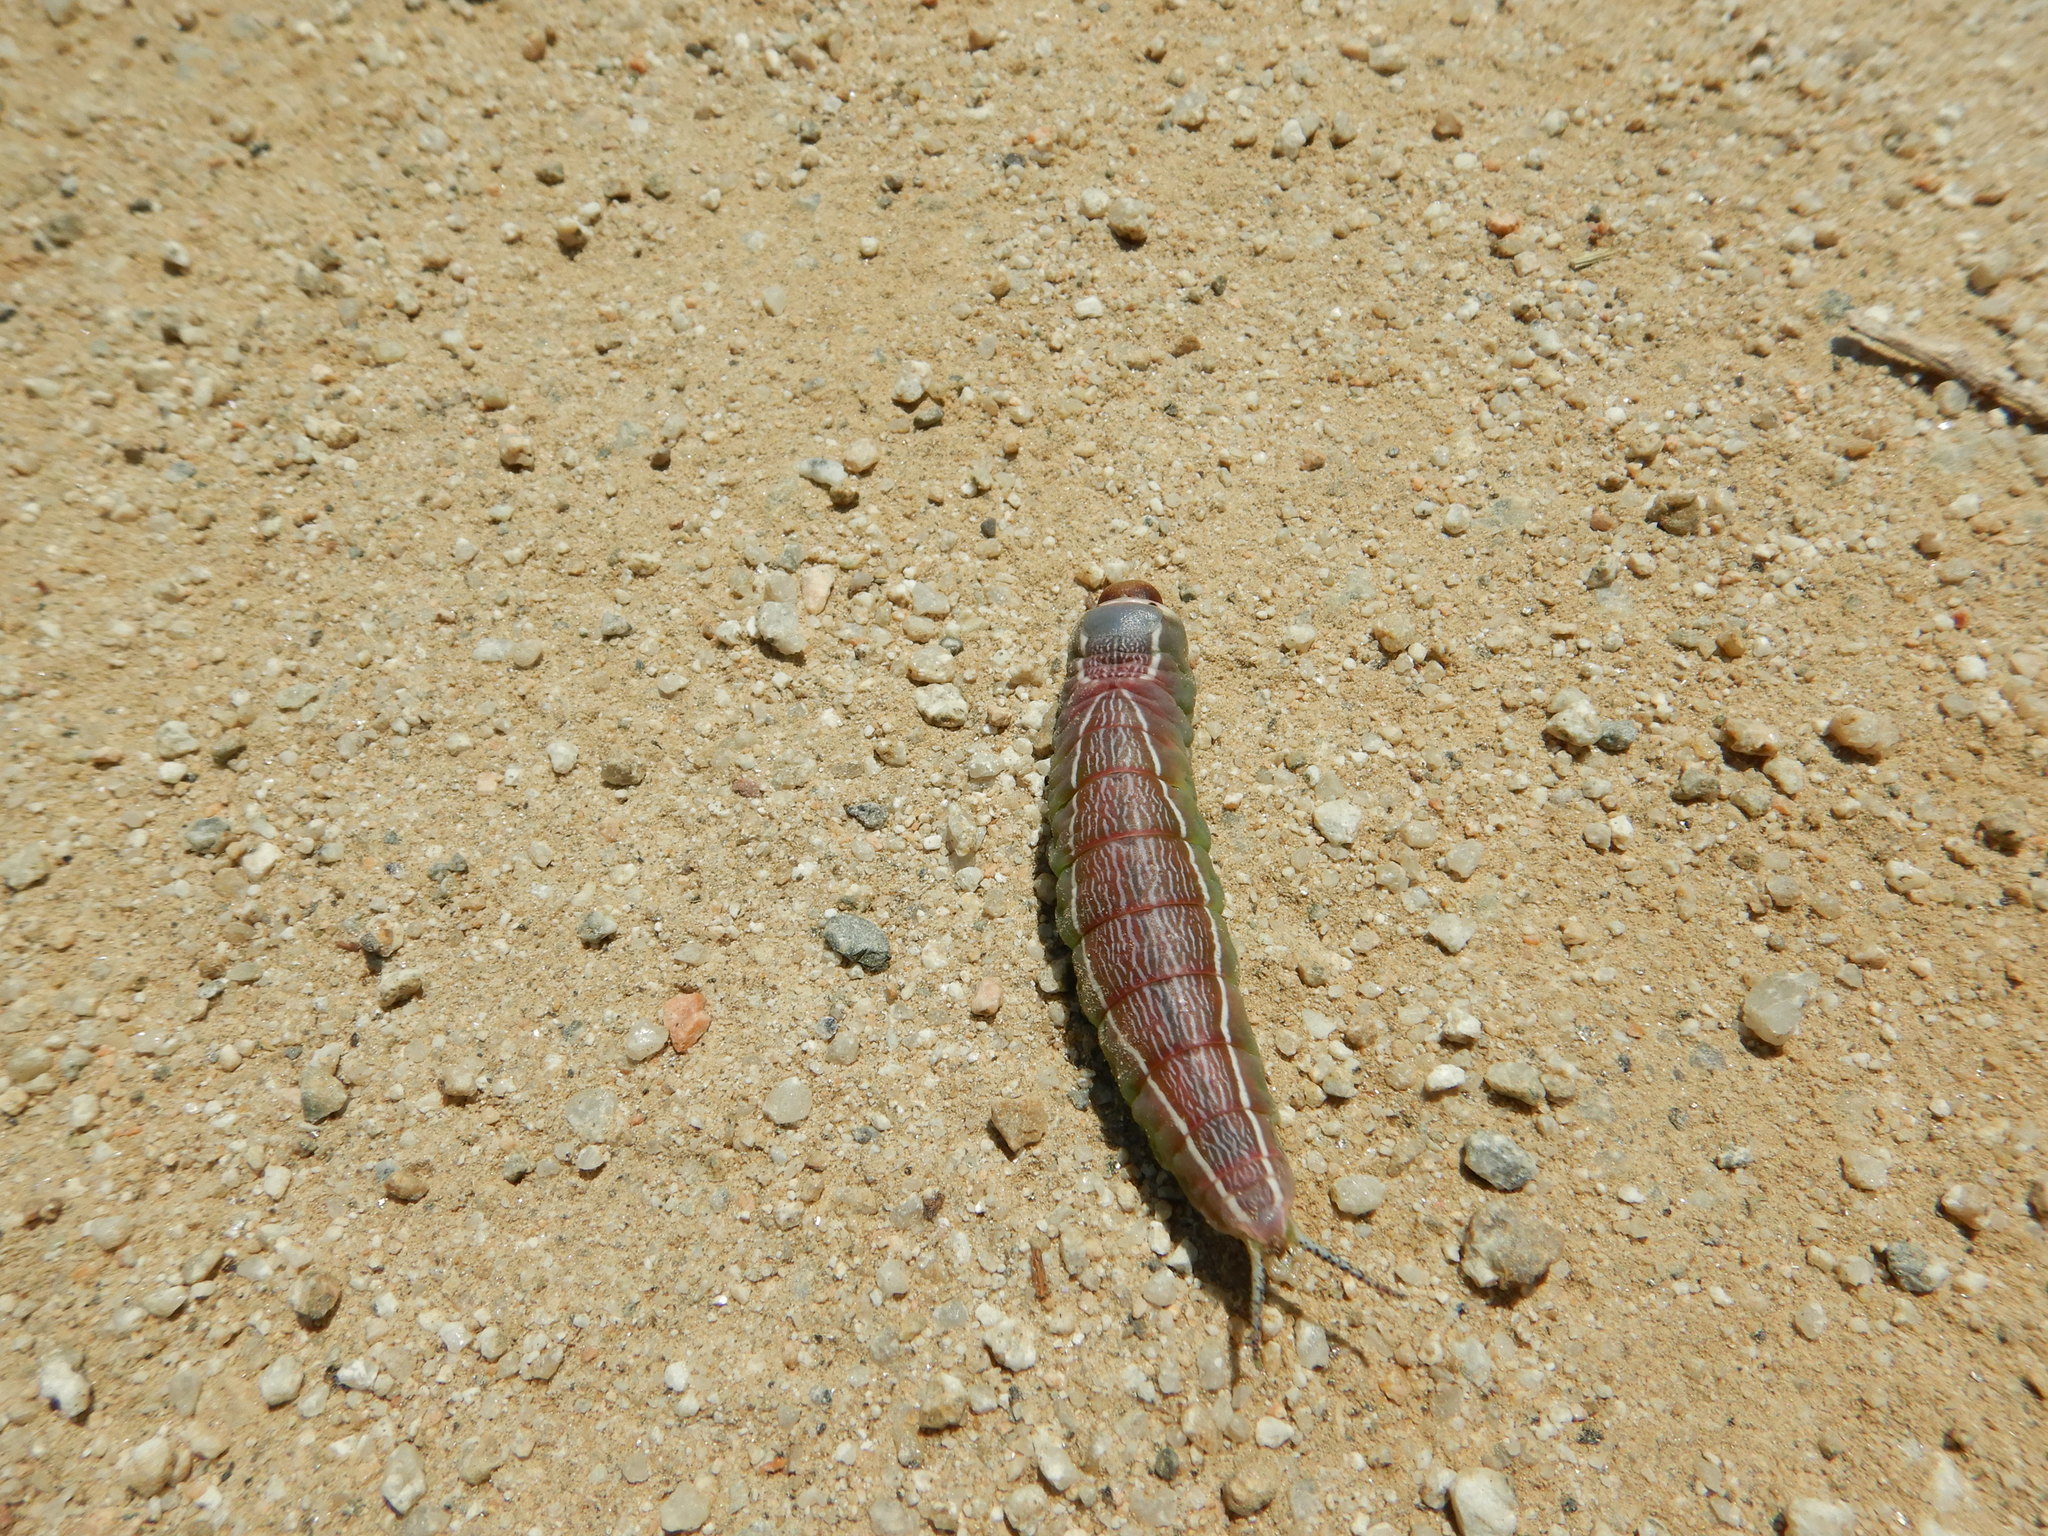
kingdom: Animalia
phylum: Arthropoda
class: Insecta
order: Lepidoptera
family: Notodontidae
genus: Cerura
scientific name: Cerura iberica
